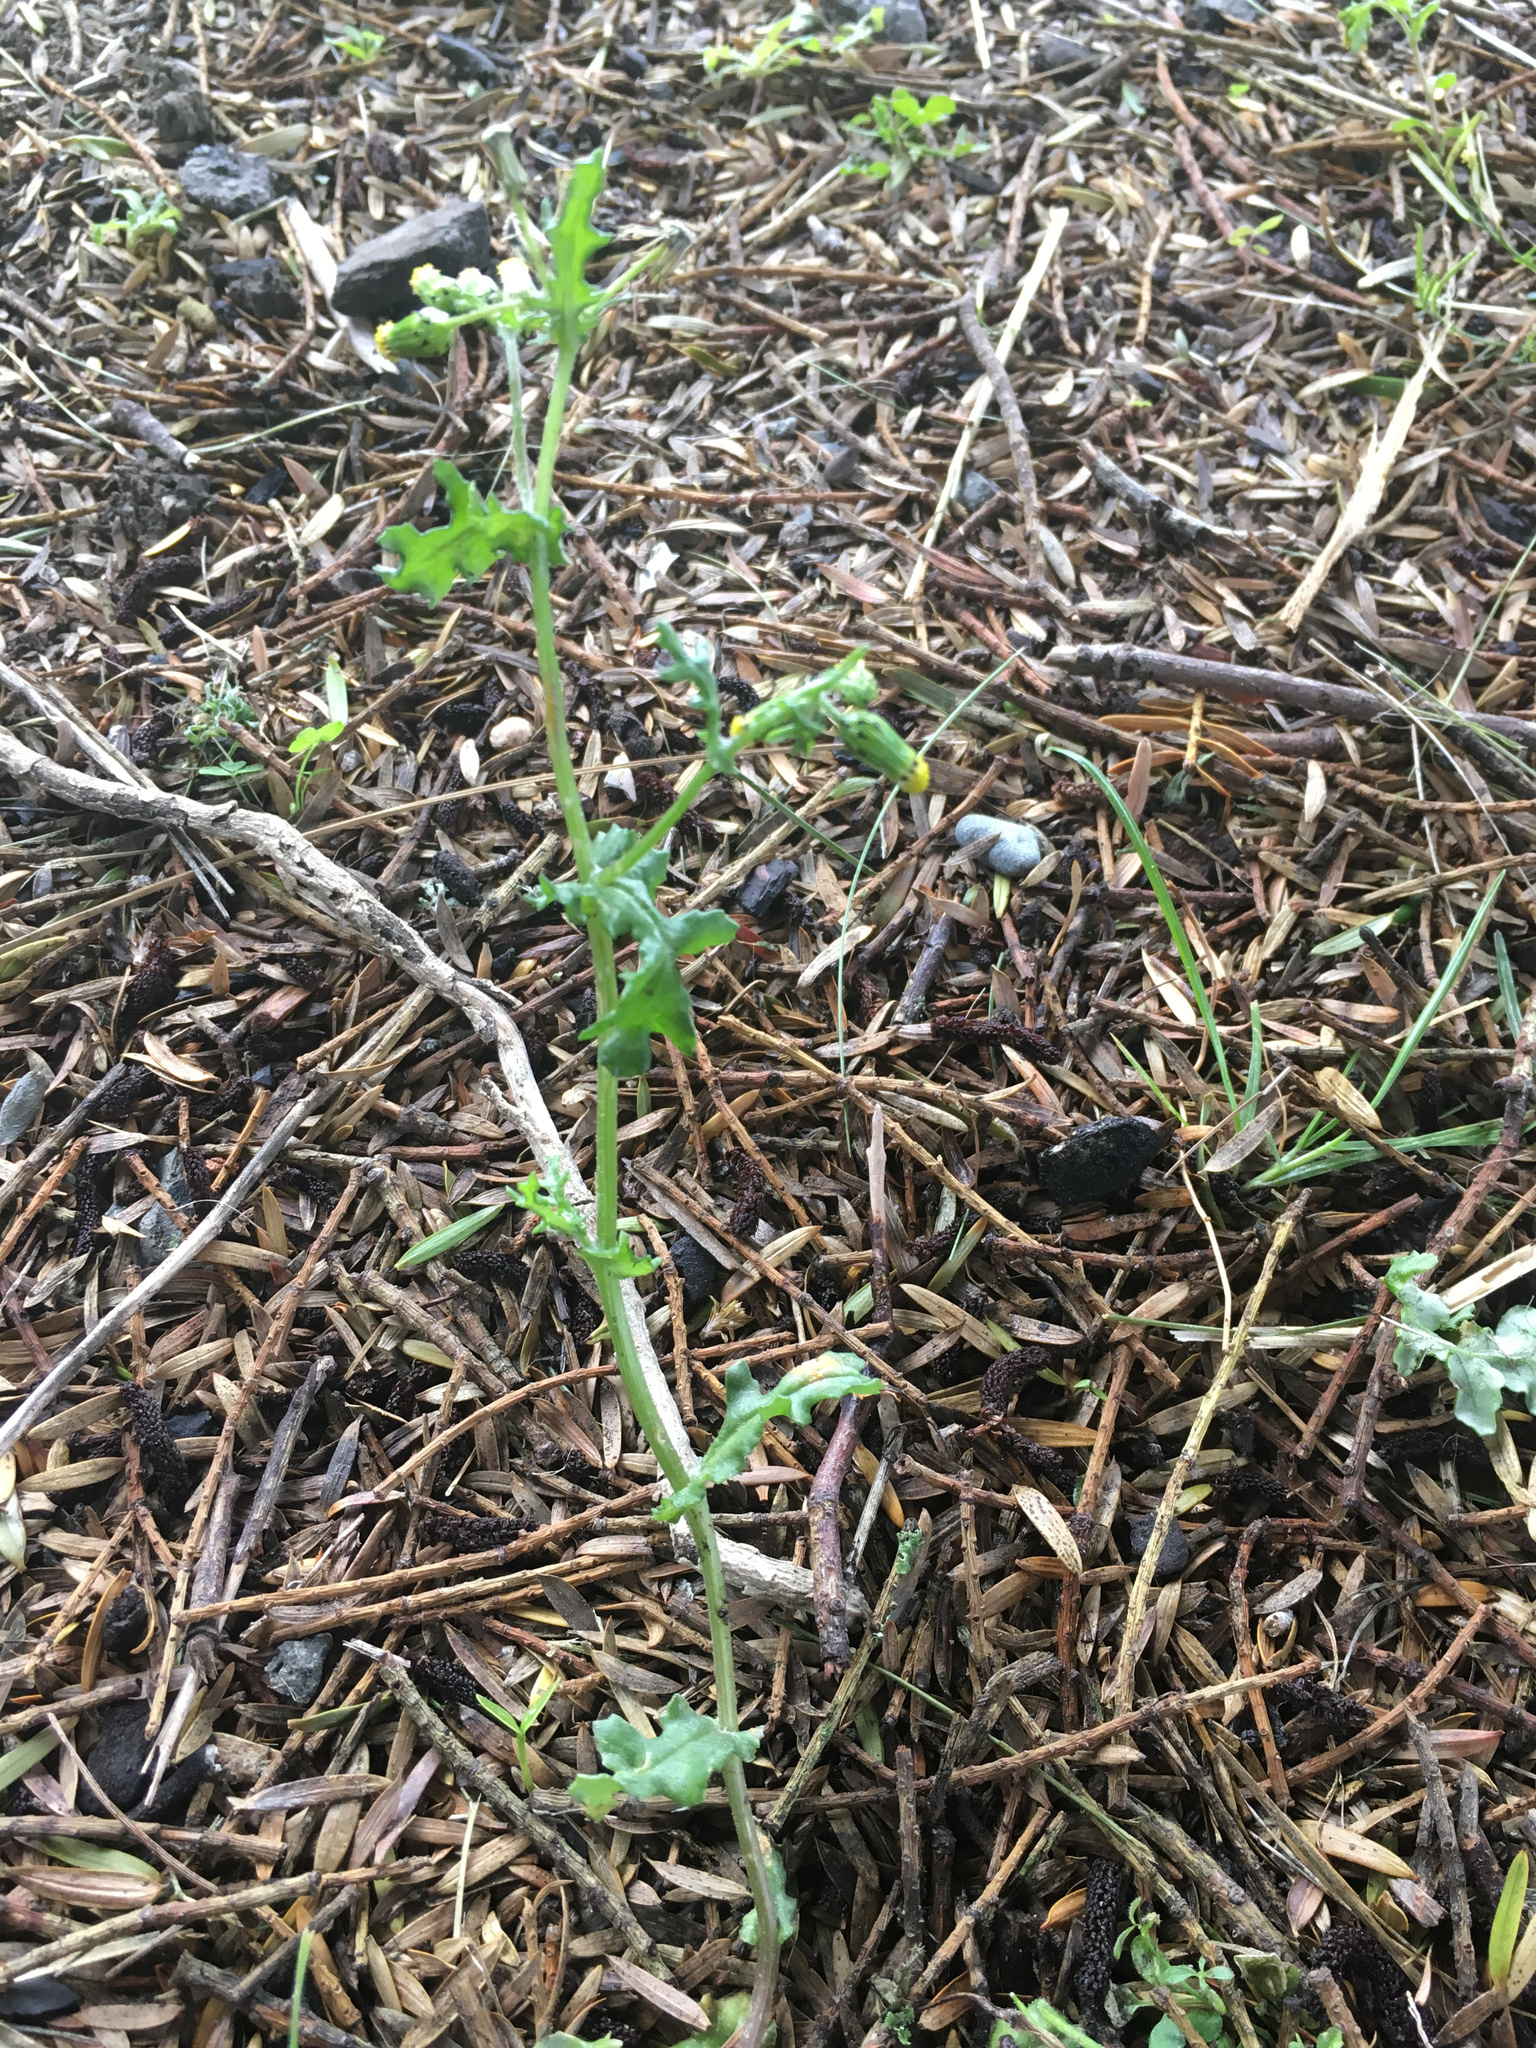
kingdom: Plantae
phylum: Tracheophyta
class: Magnoliopsida
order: Asterales
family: Asteraceae
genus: Senecio
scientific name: Senecio vulgaris
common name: Old-man-in-the-spring
